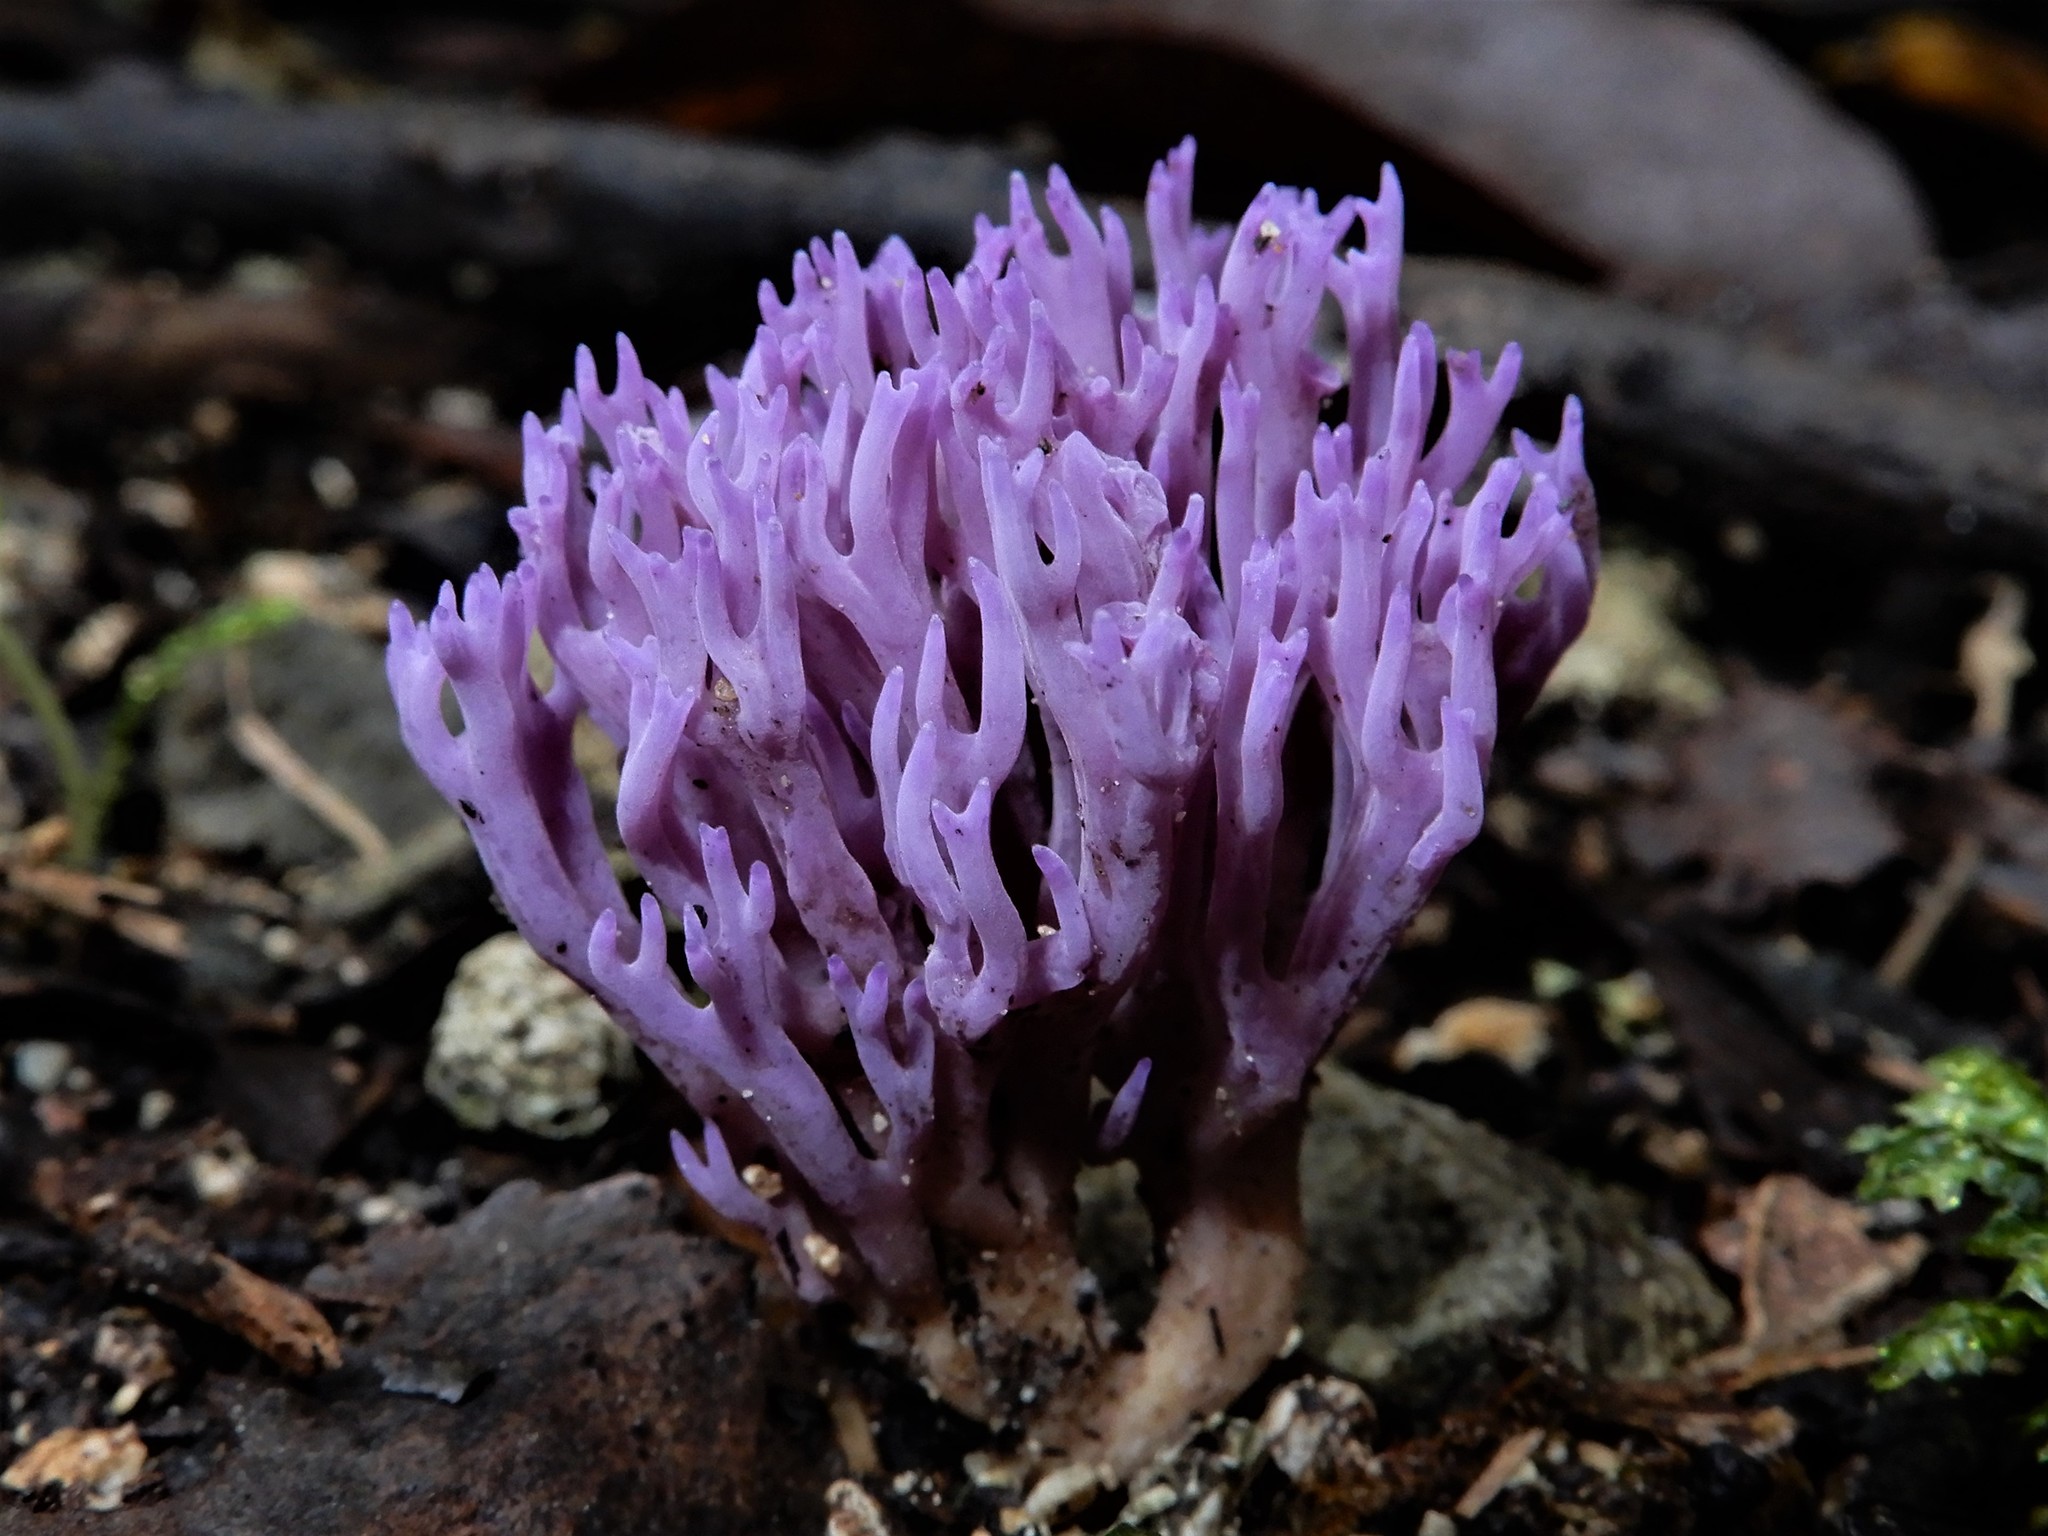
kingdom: Fungi
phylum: Basidiomycota
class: Agaricomycetes
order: Agaricales
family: Clavariaceae
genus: Ramariopsis
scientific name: Ramariopsis pulchella
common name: Lilac coral
